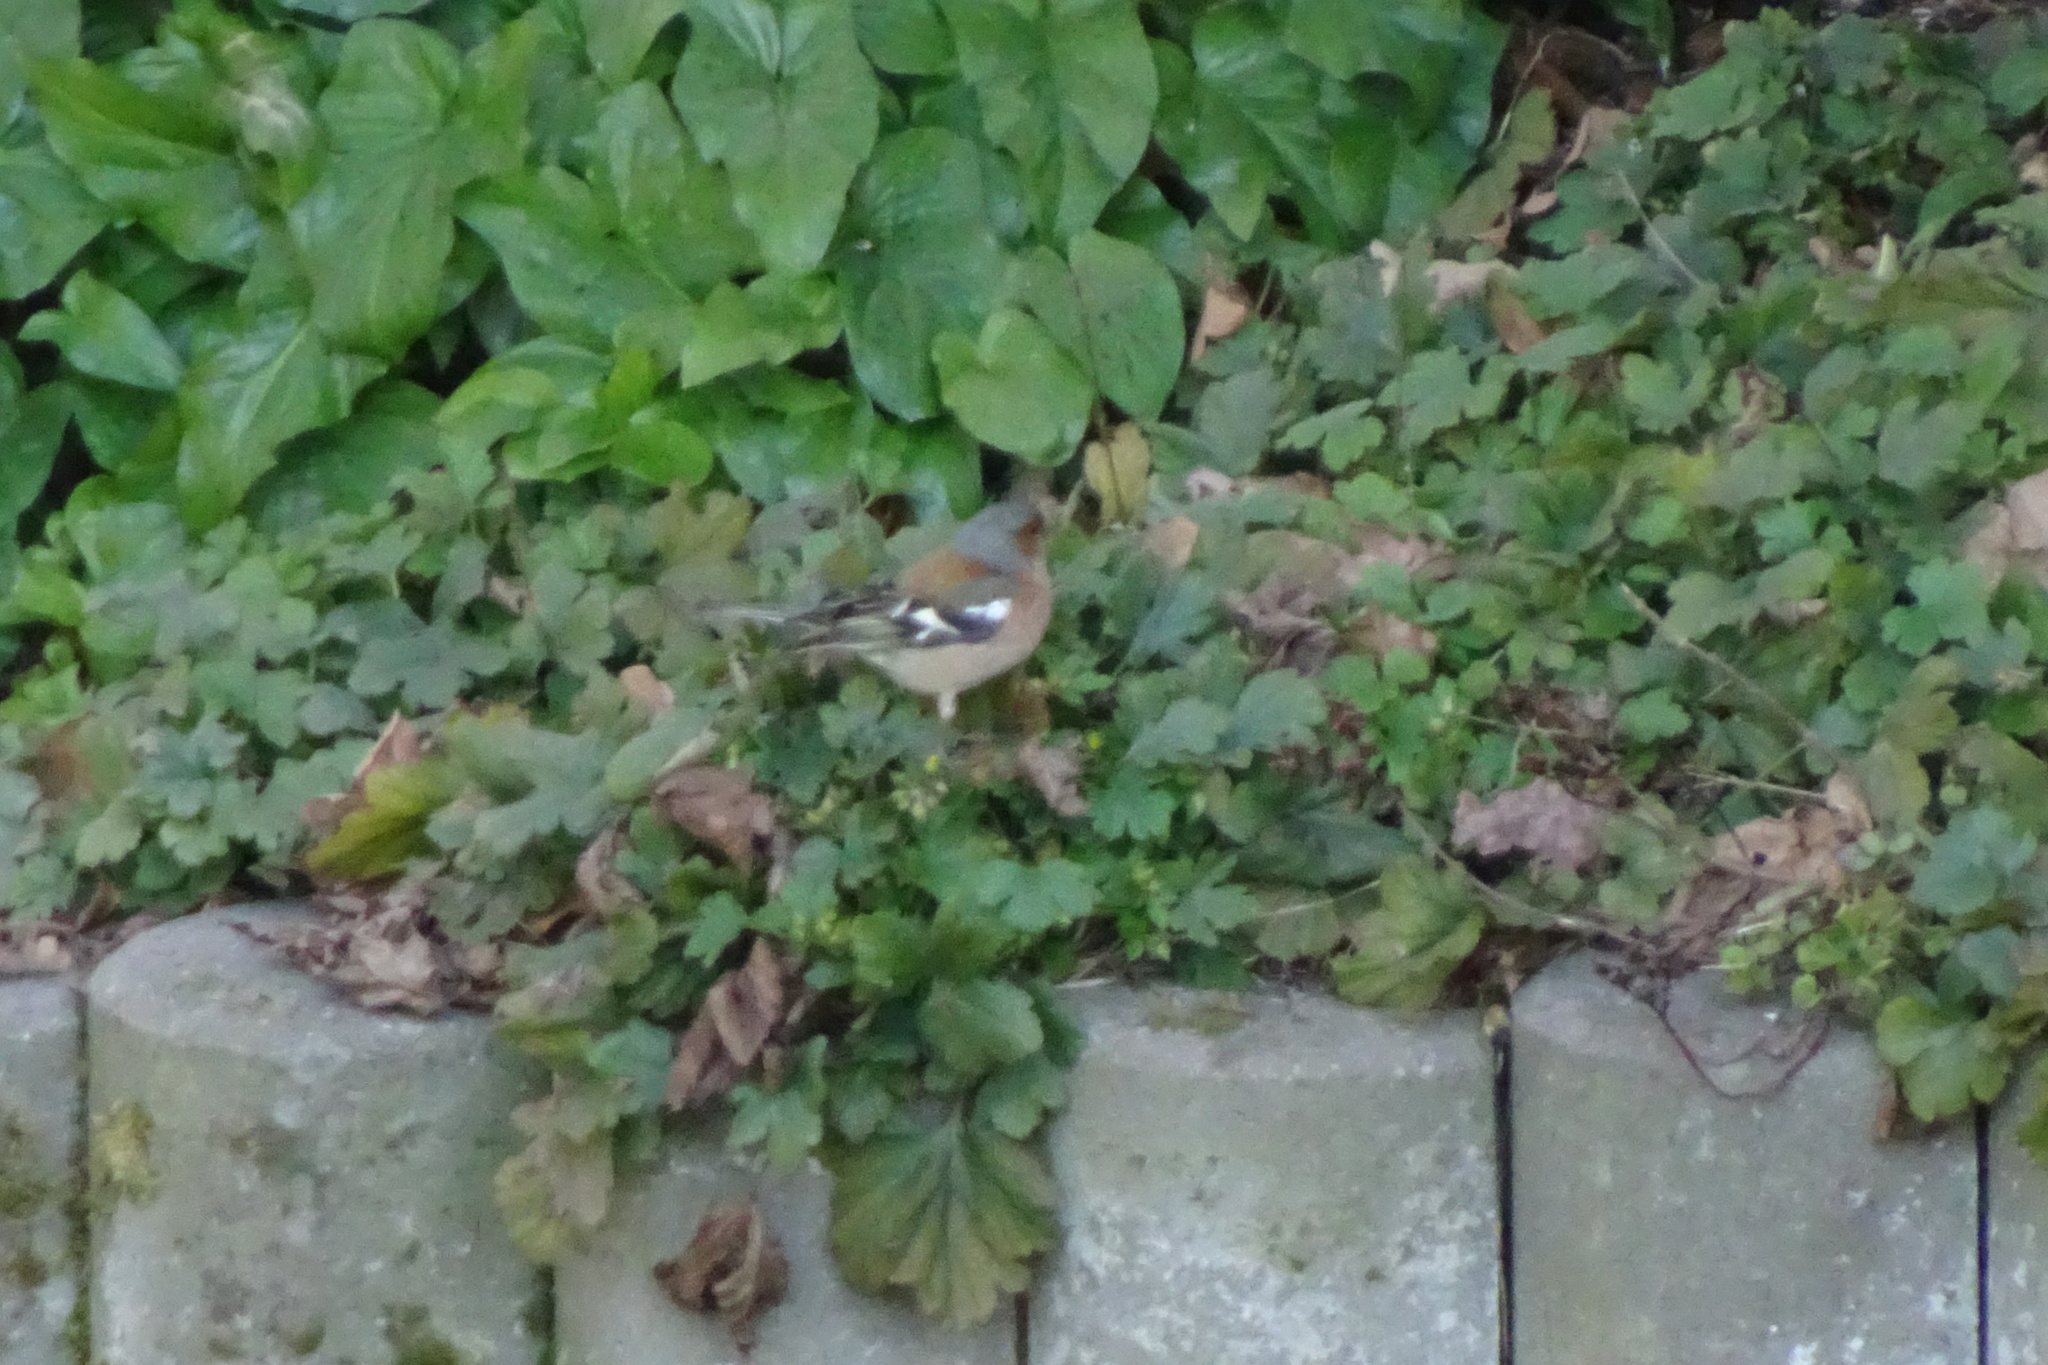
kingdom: Animalia
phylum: Chordata
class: Aves
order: Passeriformes
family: Fringillidae
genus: Fringilla
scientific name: Fringilla coelebs
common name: Common chaffinch
